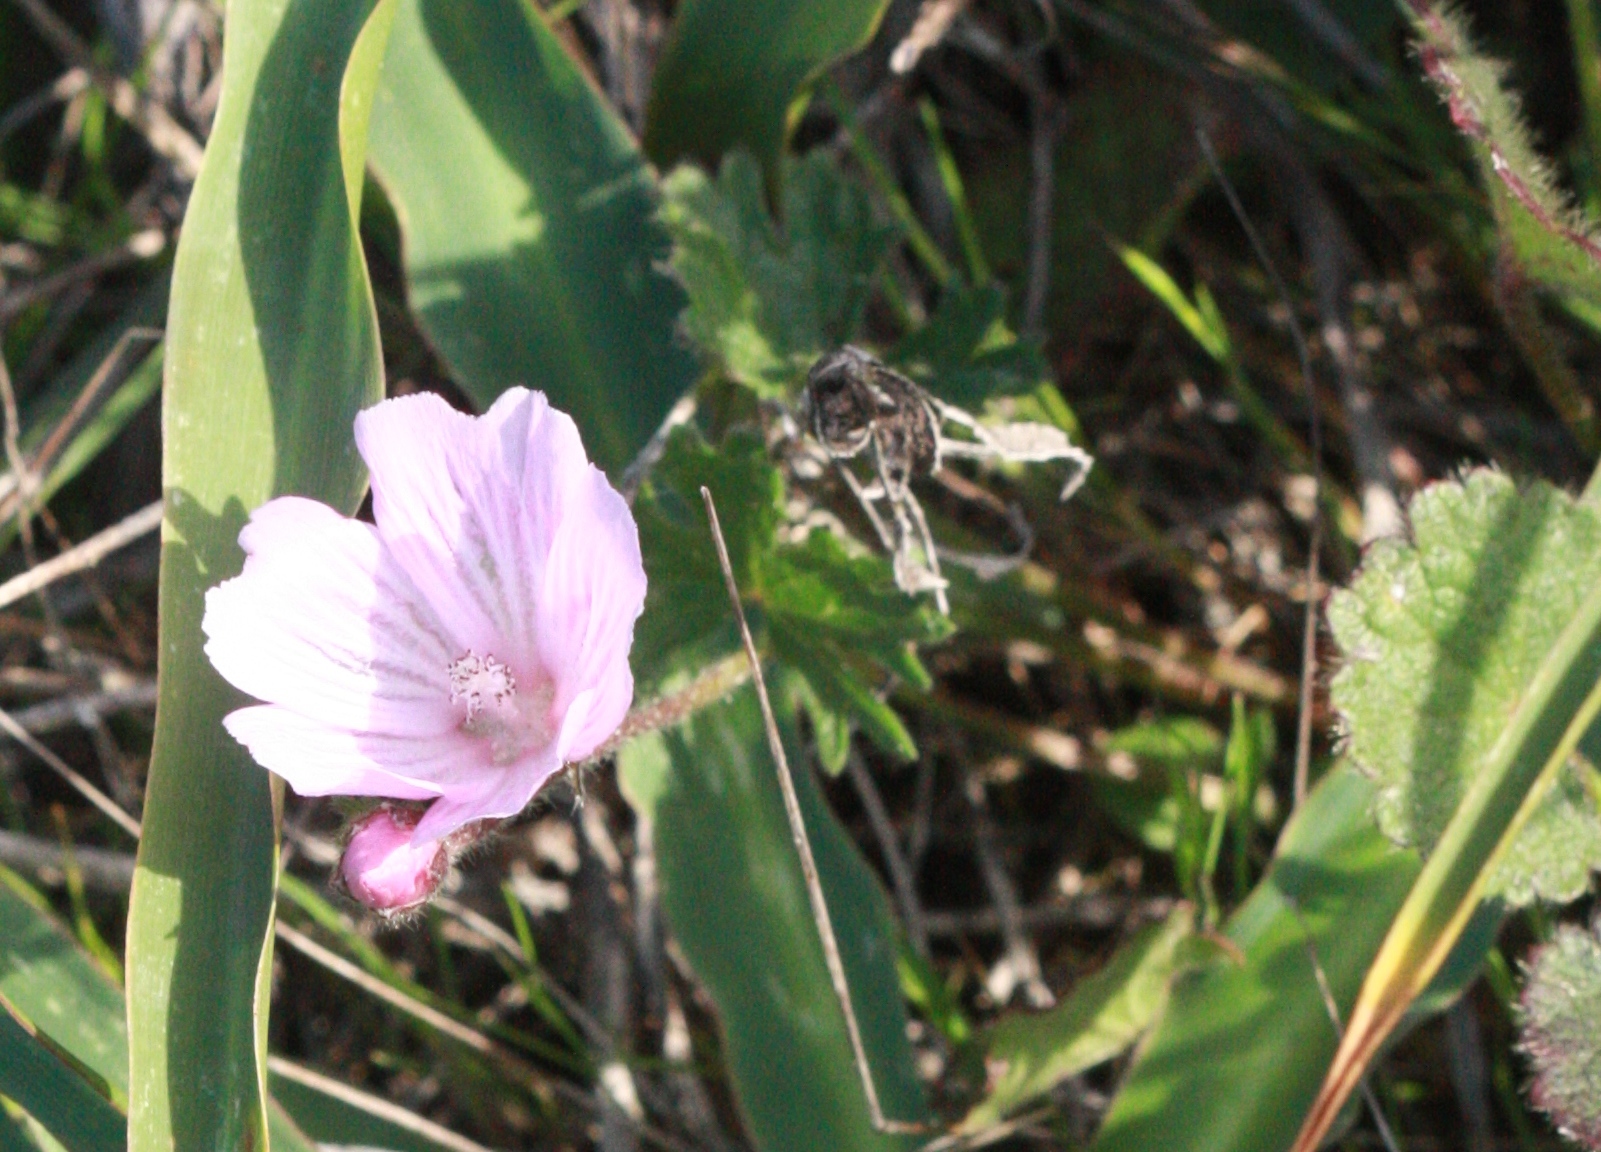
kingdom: Plantae
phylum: Tracheophyta
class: Magnoliopsida
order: Malvales
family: Malvaceae
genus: Sidalcea
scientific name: Sidalcea malviflora
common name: Greek mallow
